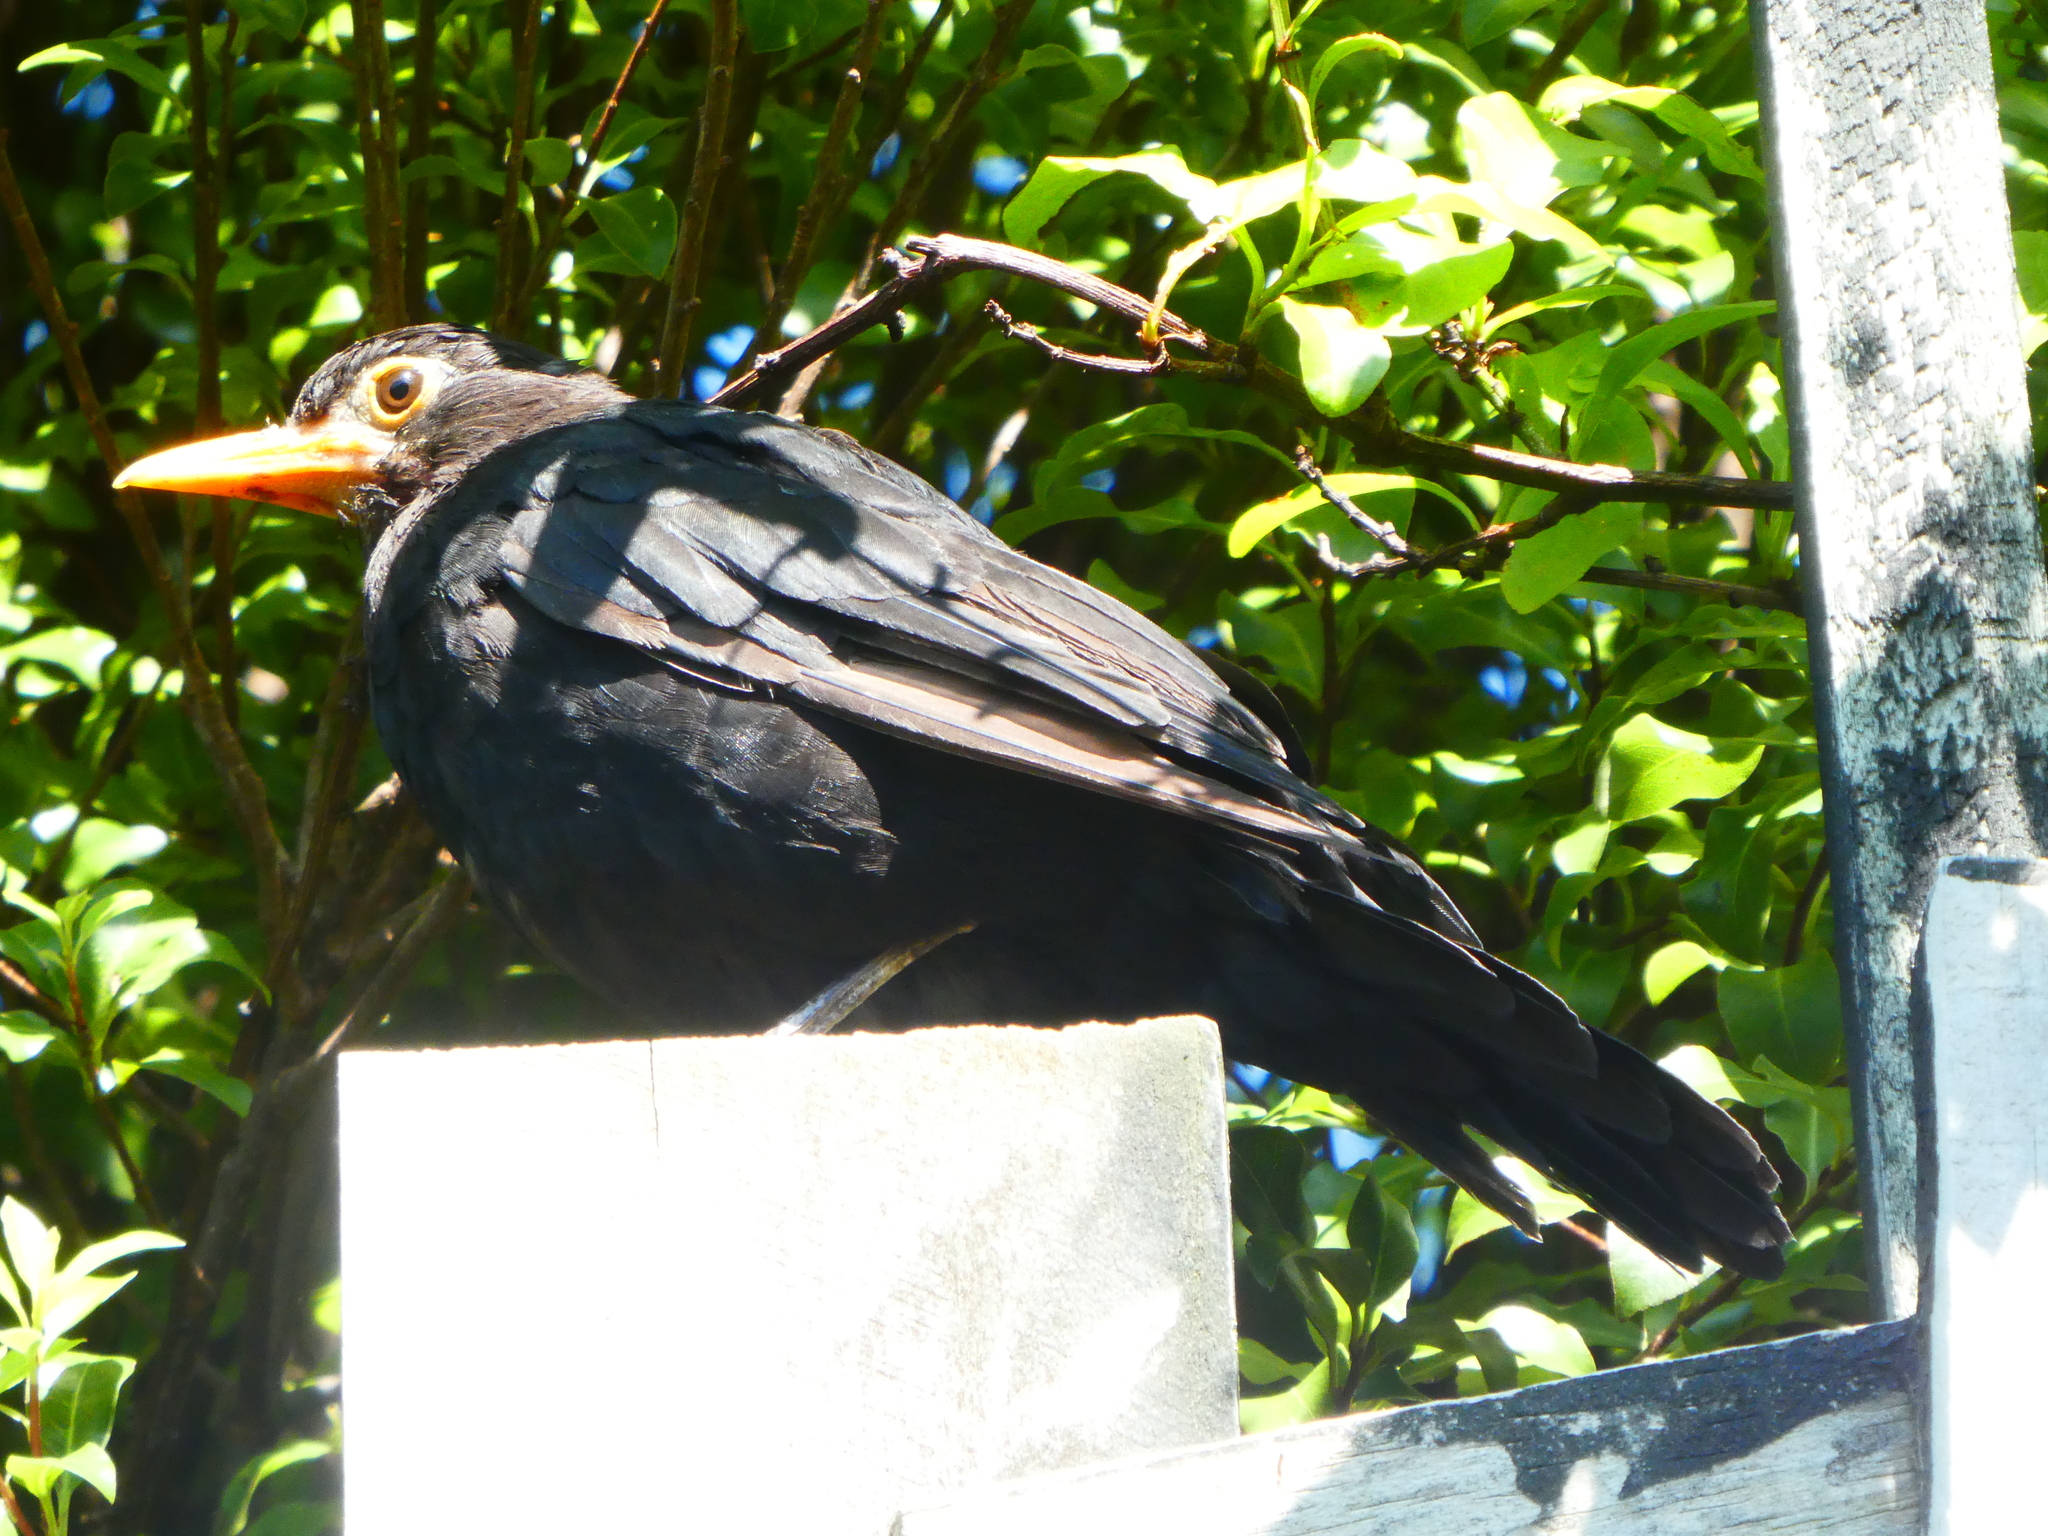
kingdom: Animalia
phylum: Chordata
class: Aves
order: Passeriformes
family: Turdidae
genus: Turdus
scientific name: Turdus merula
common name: Common blackbird
